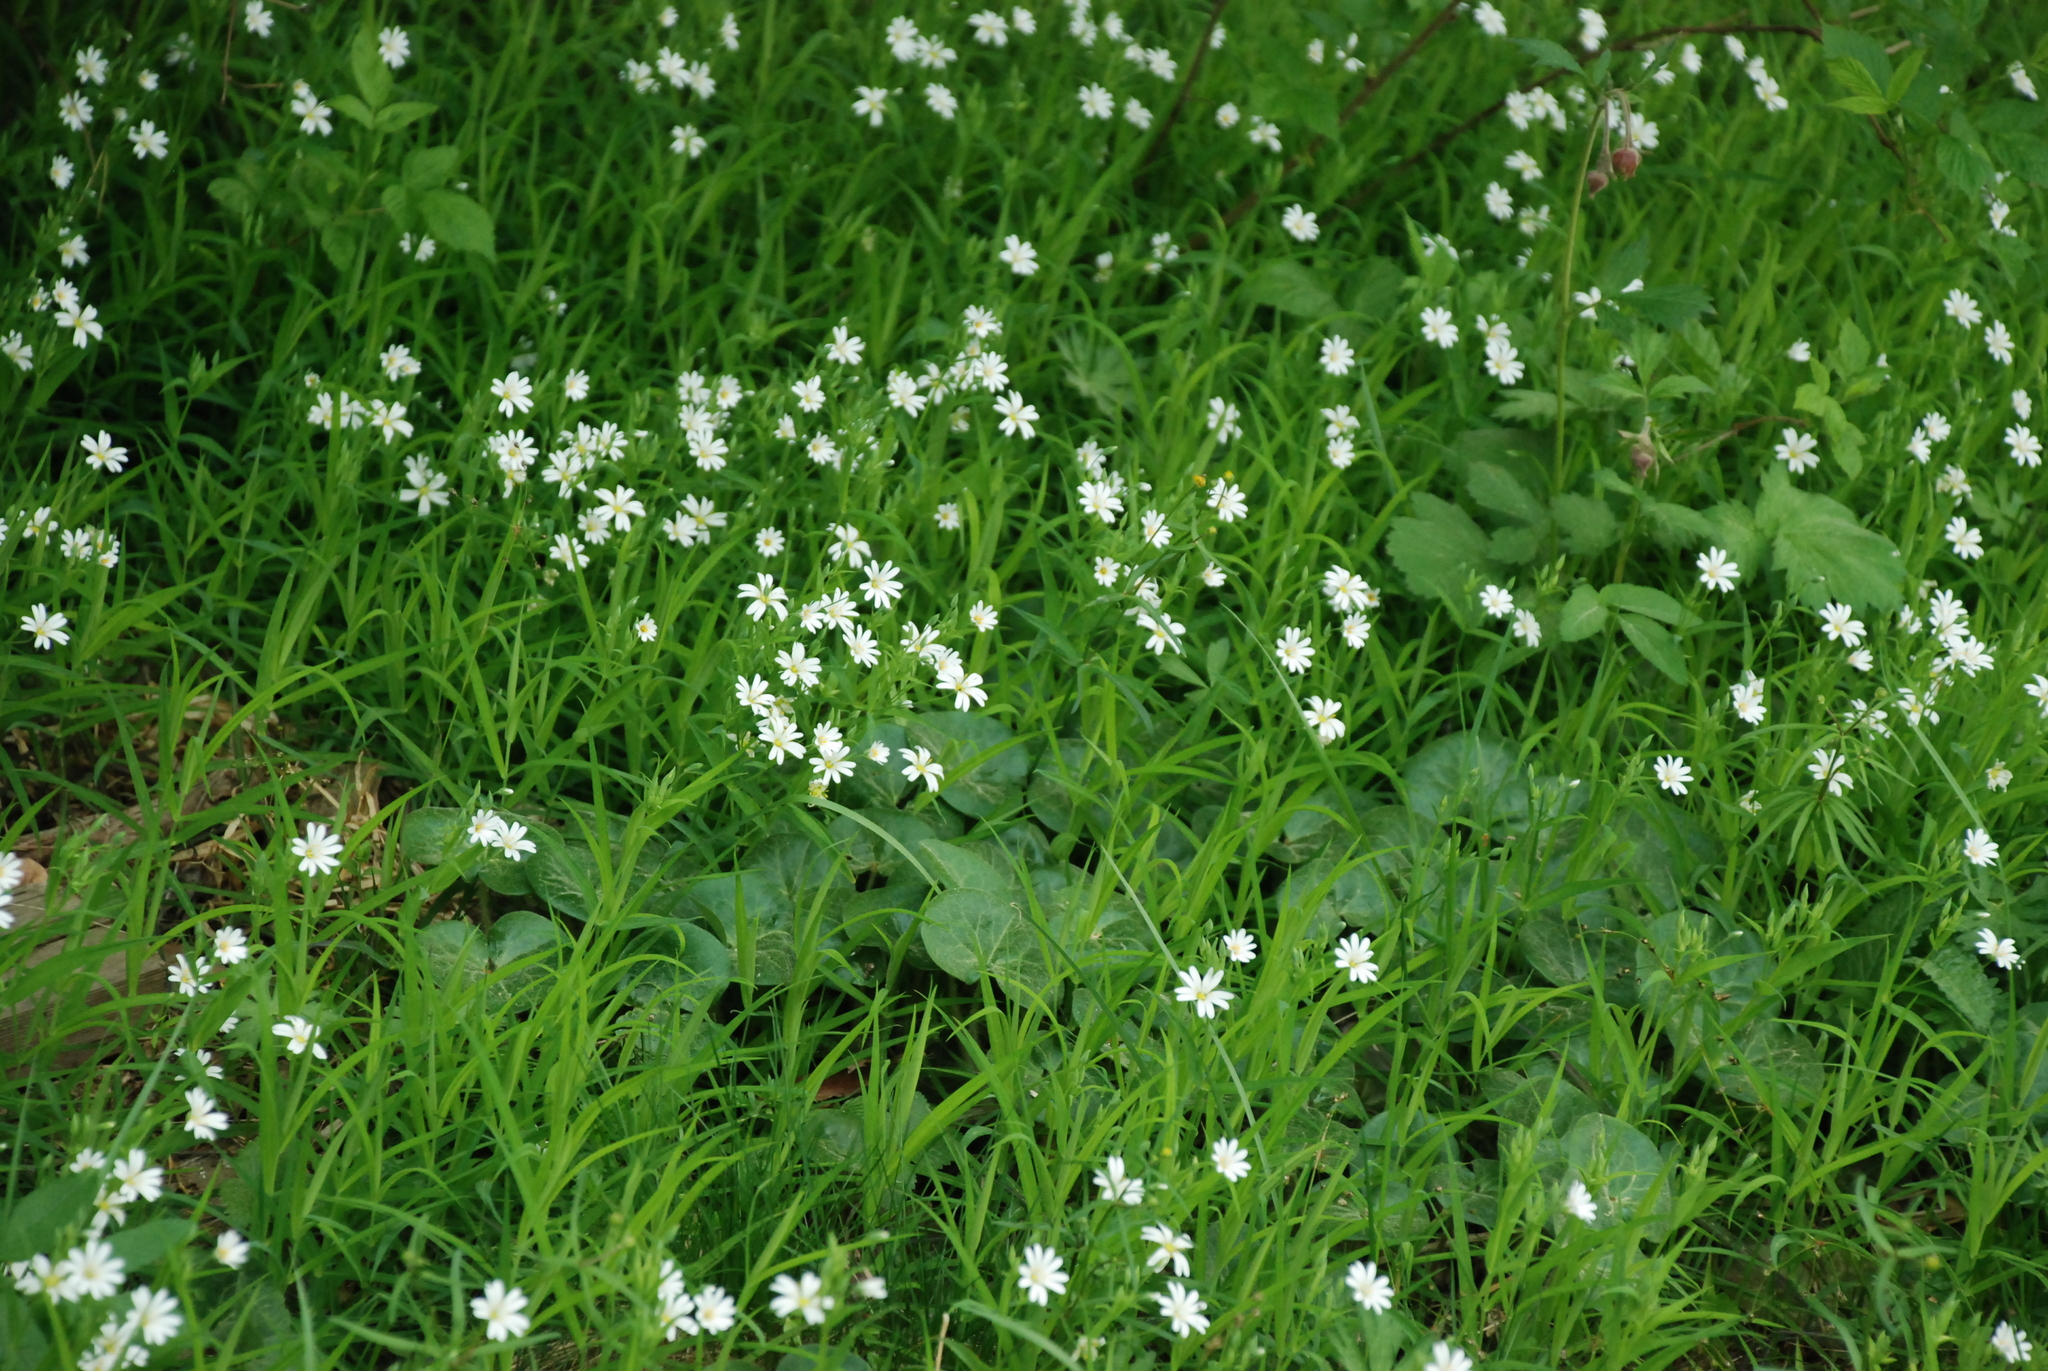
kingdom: Plantae
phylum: Tracheophyta
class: Magnoliopsida
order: Caryophyllales
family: Caryophyllaceae
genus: Rabelera
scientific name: Rabelera holostea
